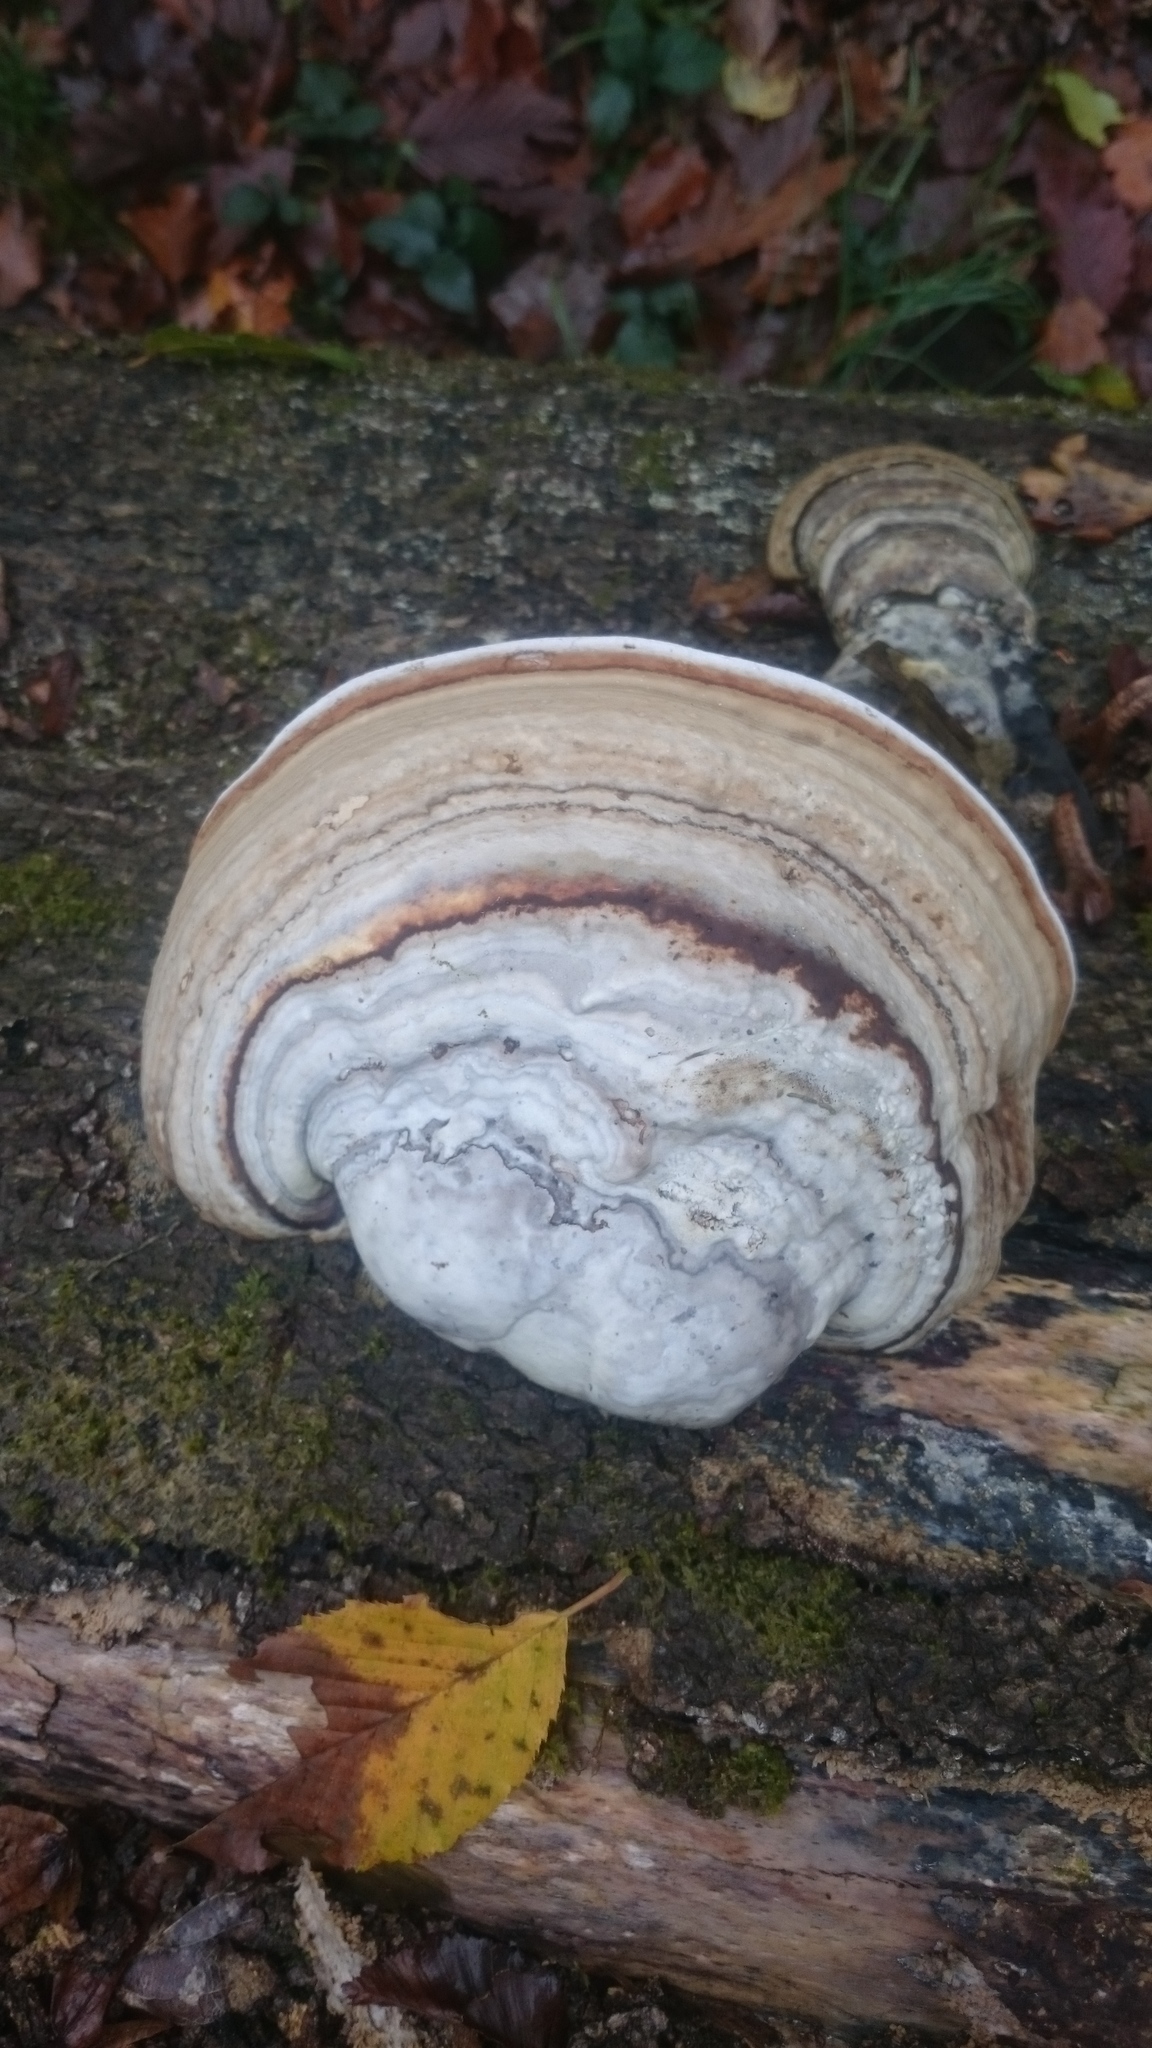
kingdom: Fungi
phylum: Basidiomycota
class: Agaricomycetes
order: Polyporales
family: Polyporaceae
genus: Fomes
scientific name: Fomes fomentarius
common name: Hoof fungus
